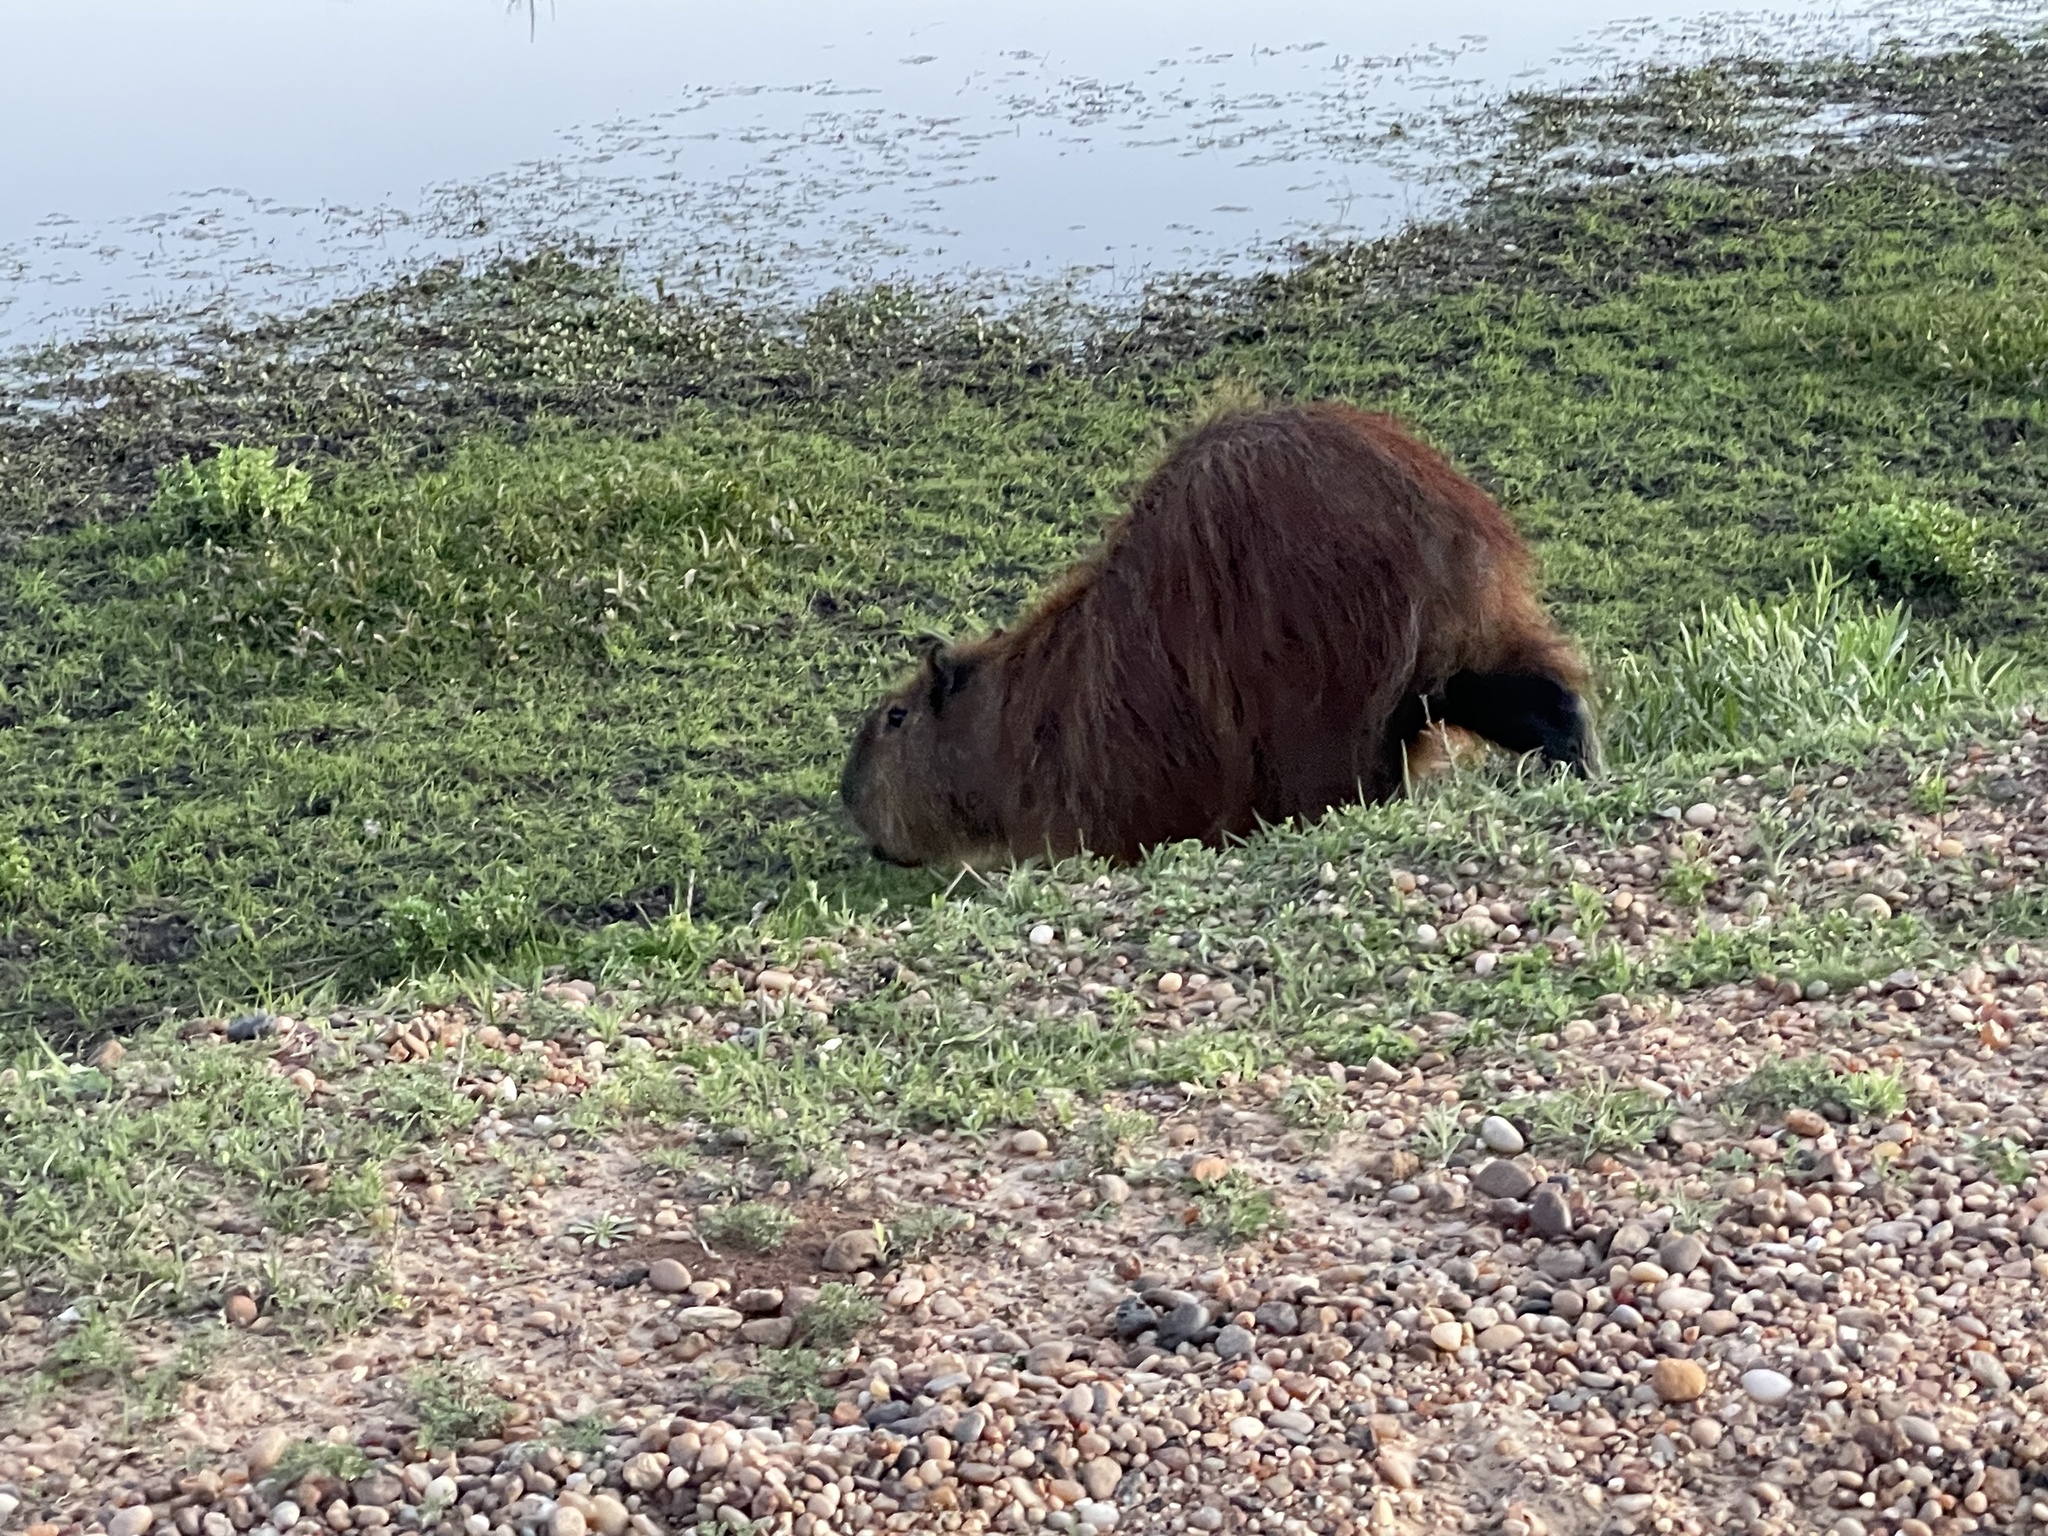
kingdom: Animalia
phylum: Chordata
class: Mammalia
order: Rodentia
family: Caviidae
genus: Hydrochoerus
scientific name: Hydrochoerus hydrochaeris
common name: Capybara
